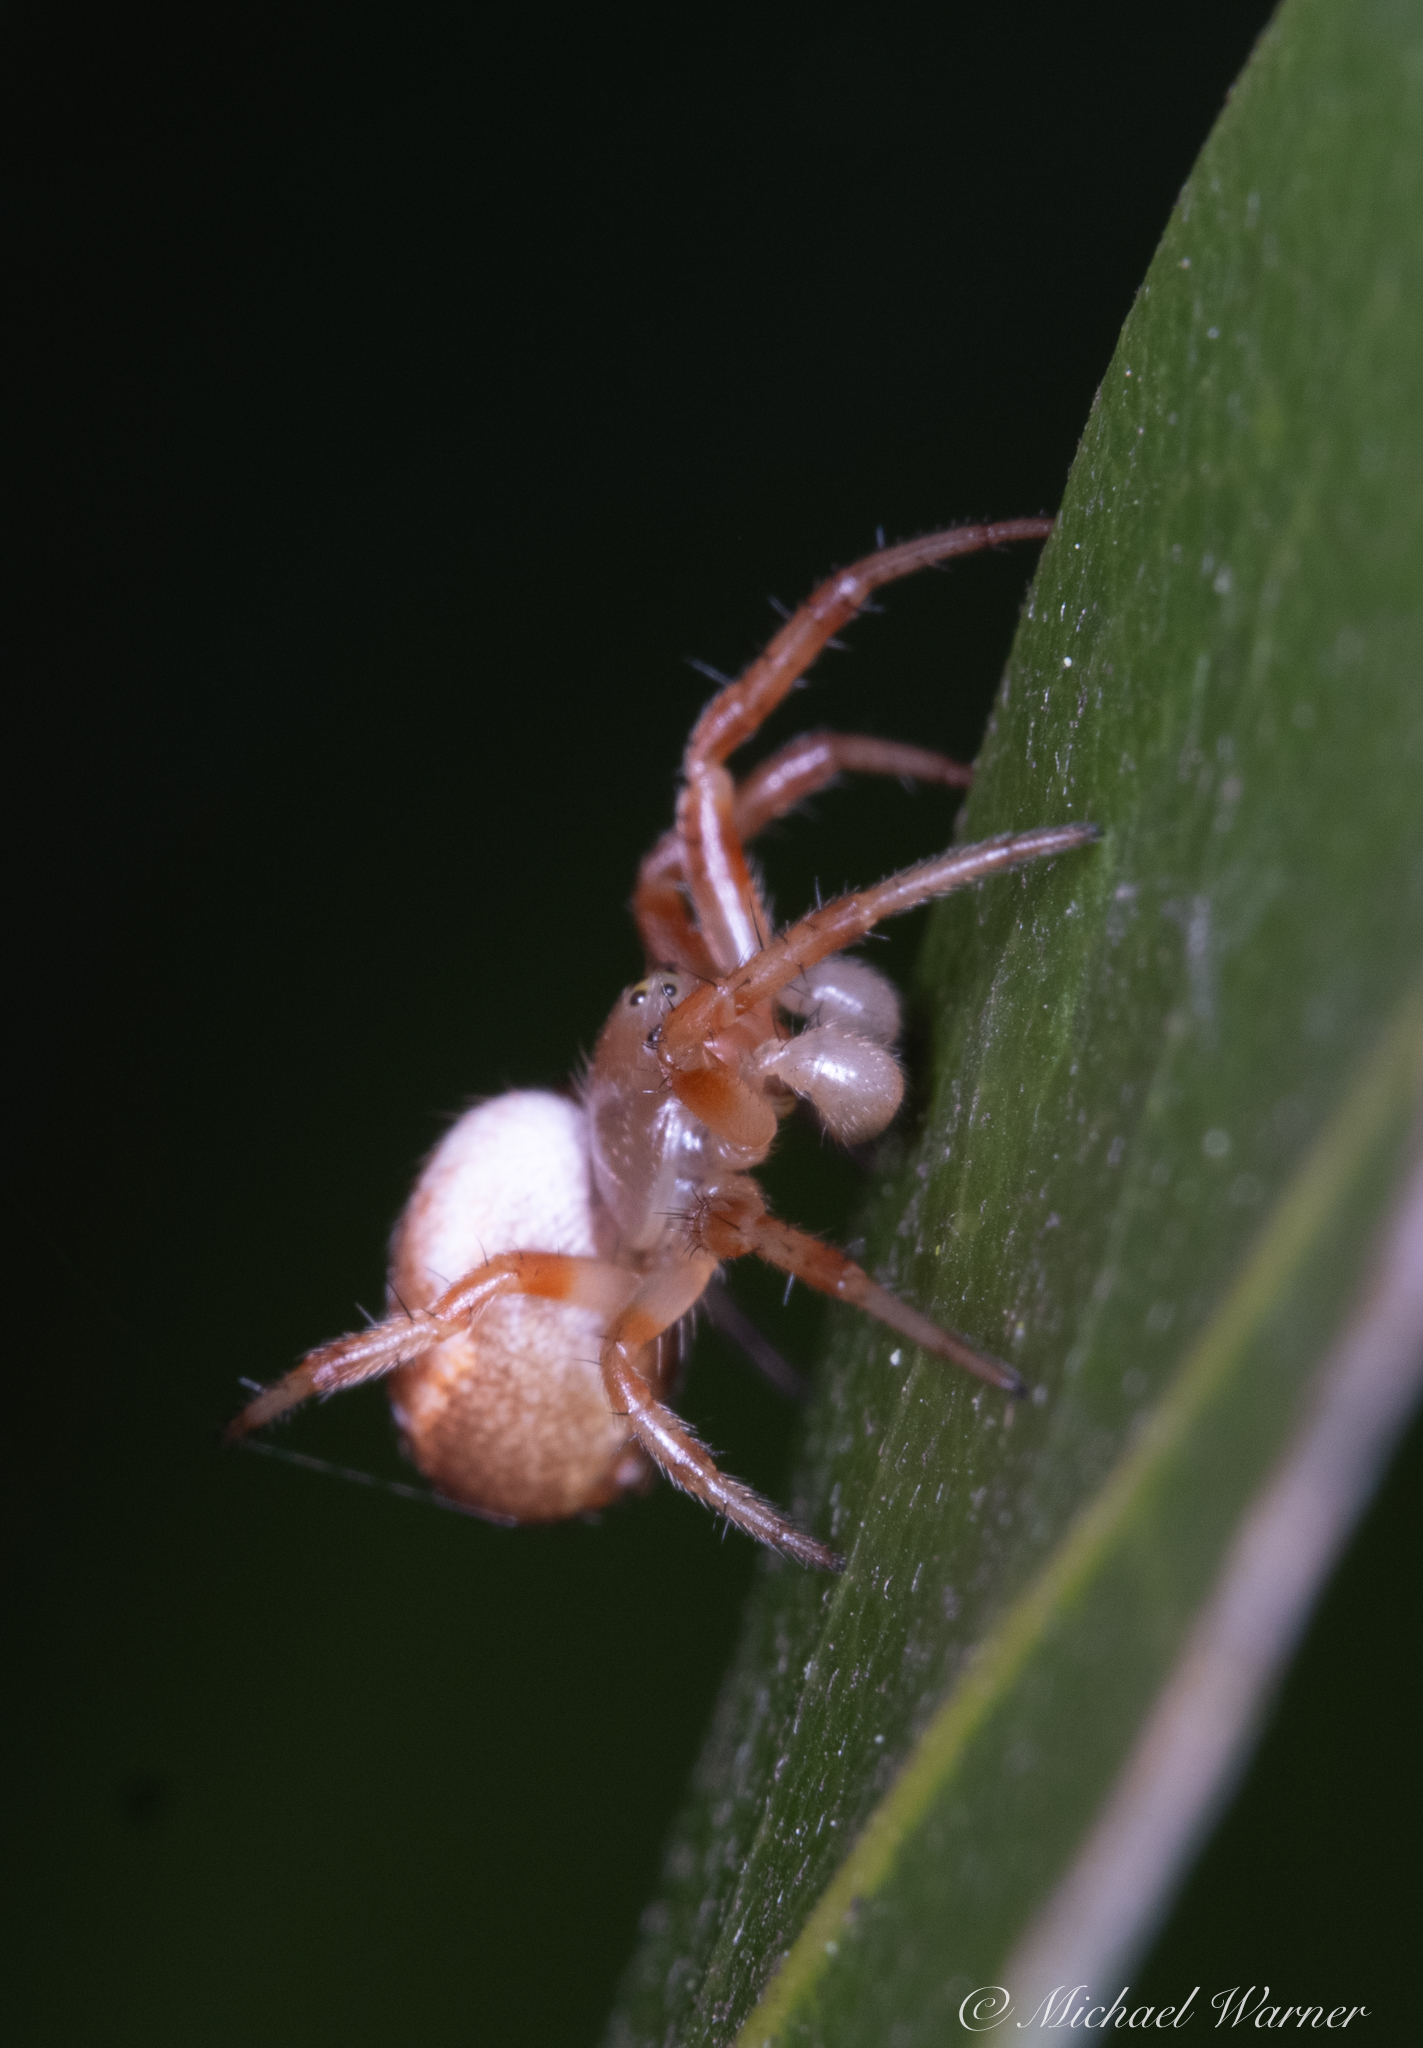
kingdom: Animalia
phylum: Arthropoda
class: Arachnida
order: Araneae
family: Araneidae
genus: Araniella
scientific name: Araniella displicata
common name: Sixspotted orb weaver
